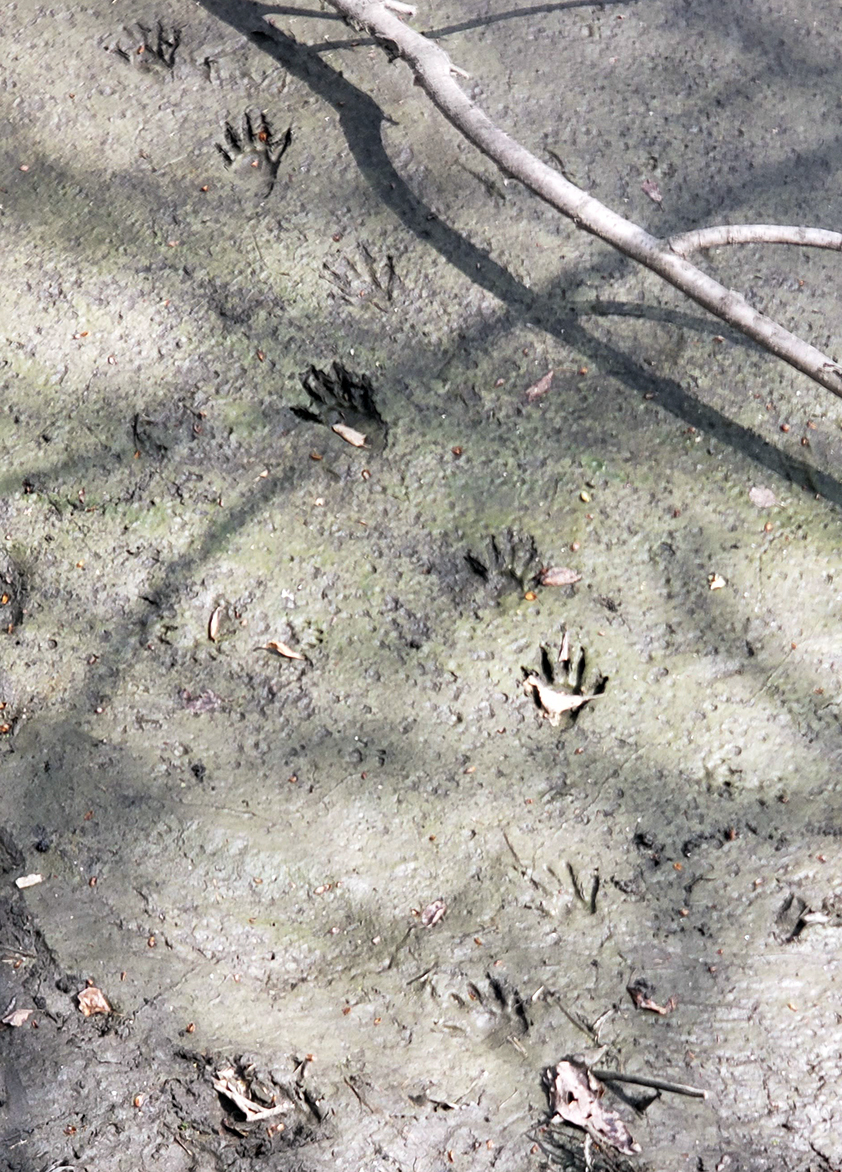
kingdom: Animalia
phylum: Chordata
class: Mammalia
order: Carnivora
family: Procyonidae
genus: Procyon
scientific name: Procyon lotor
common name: Raccoon
